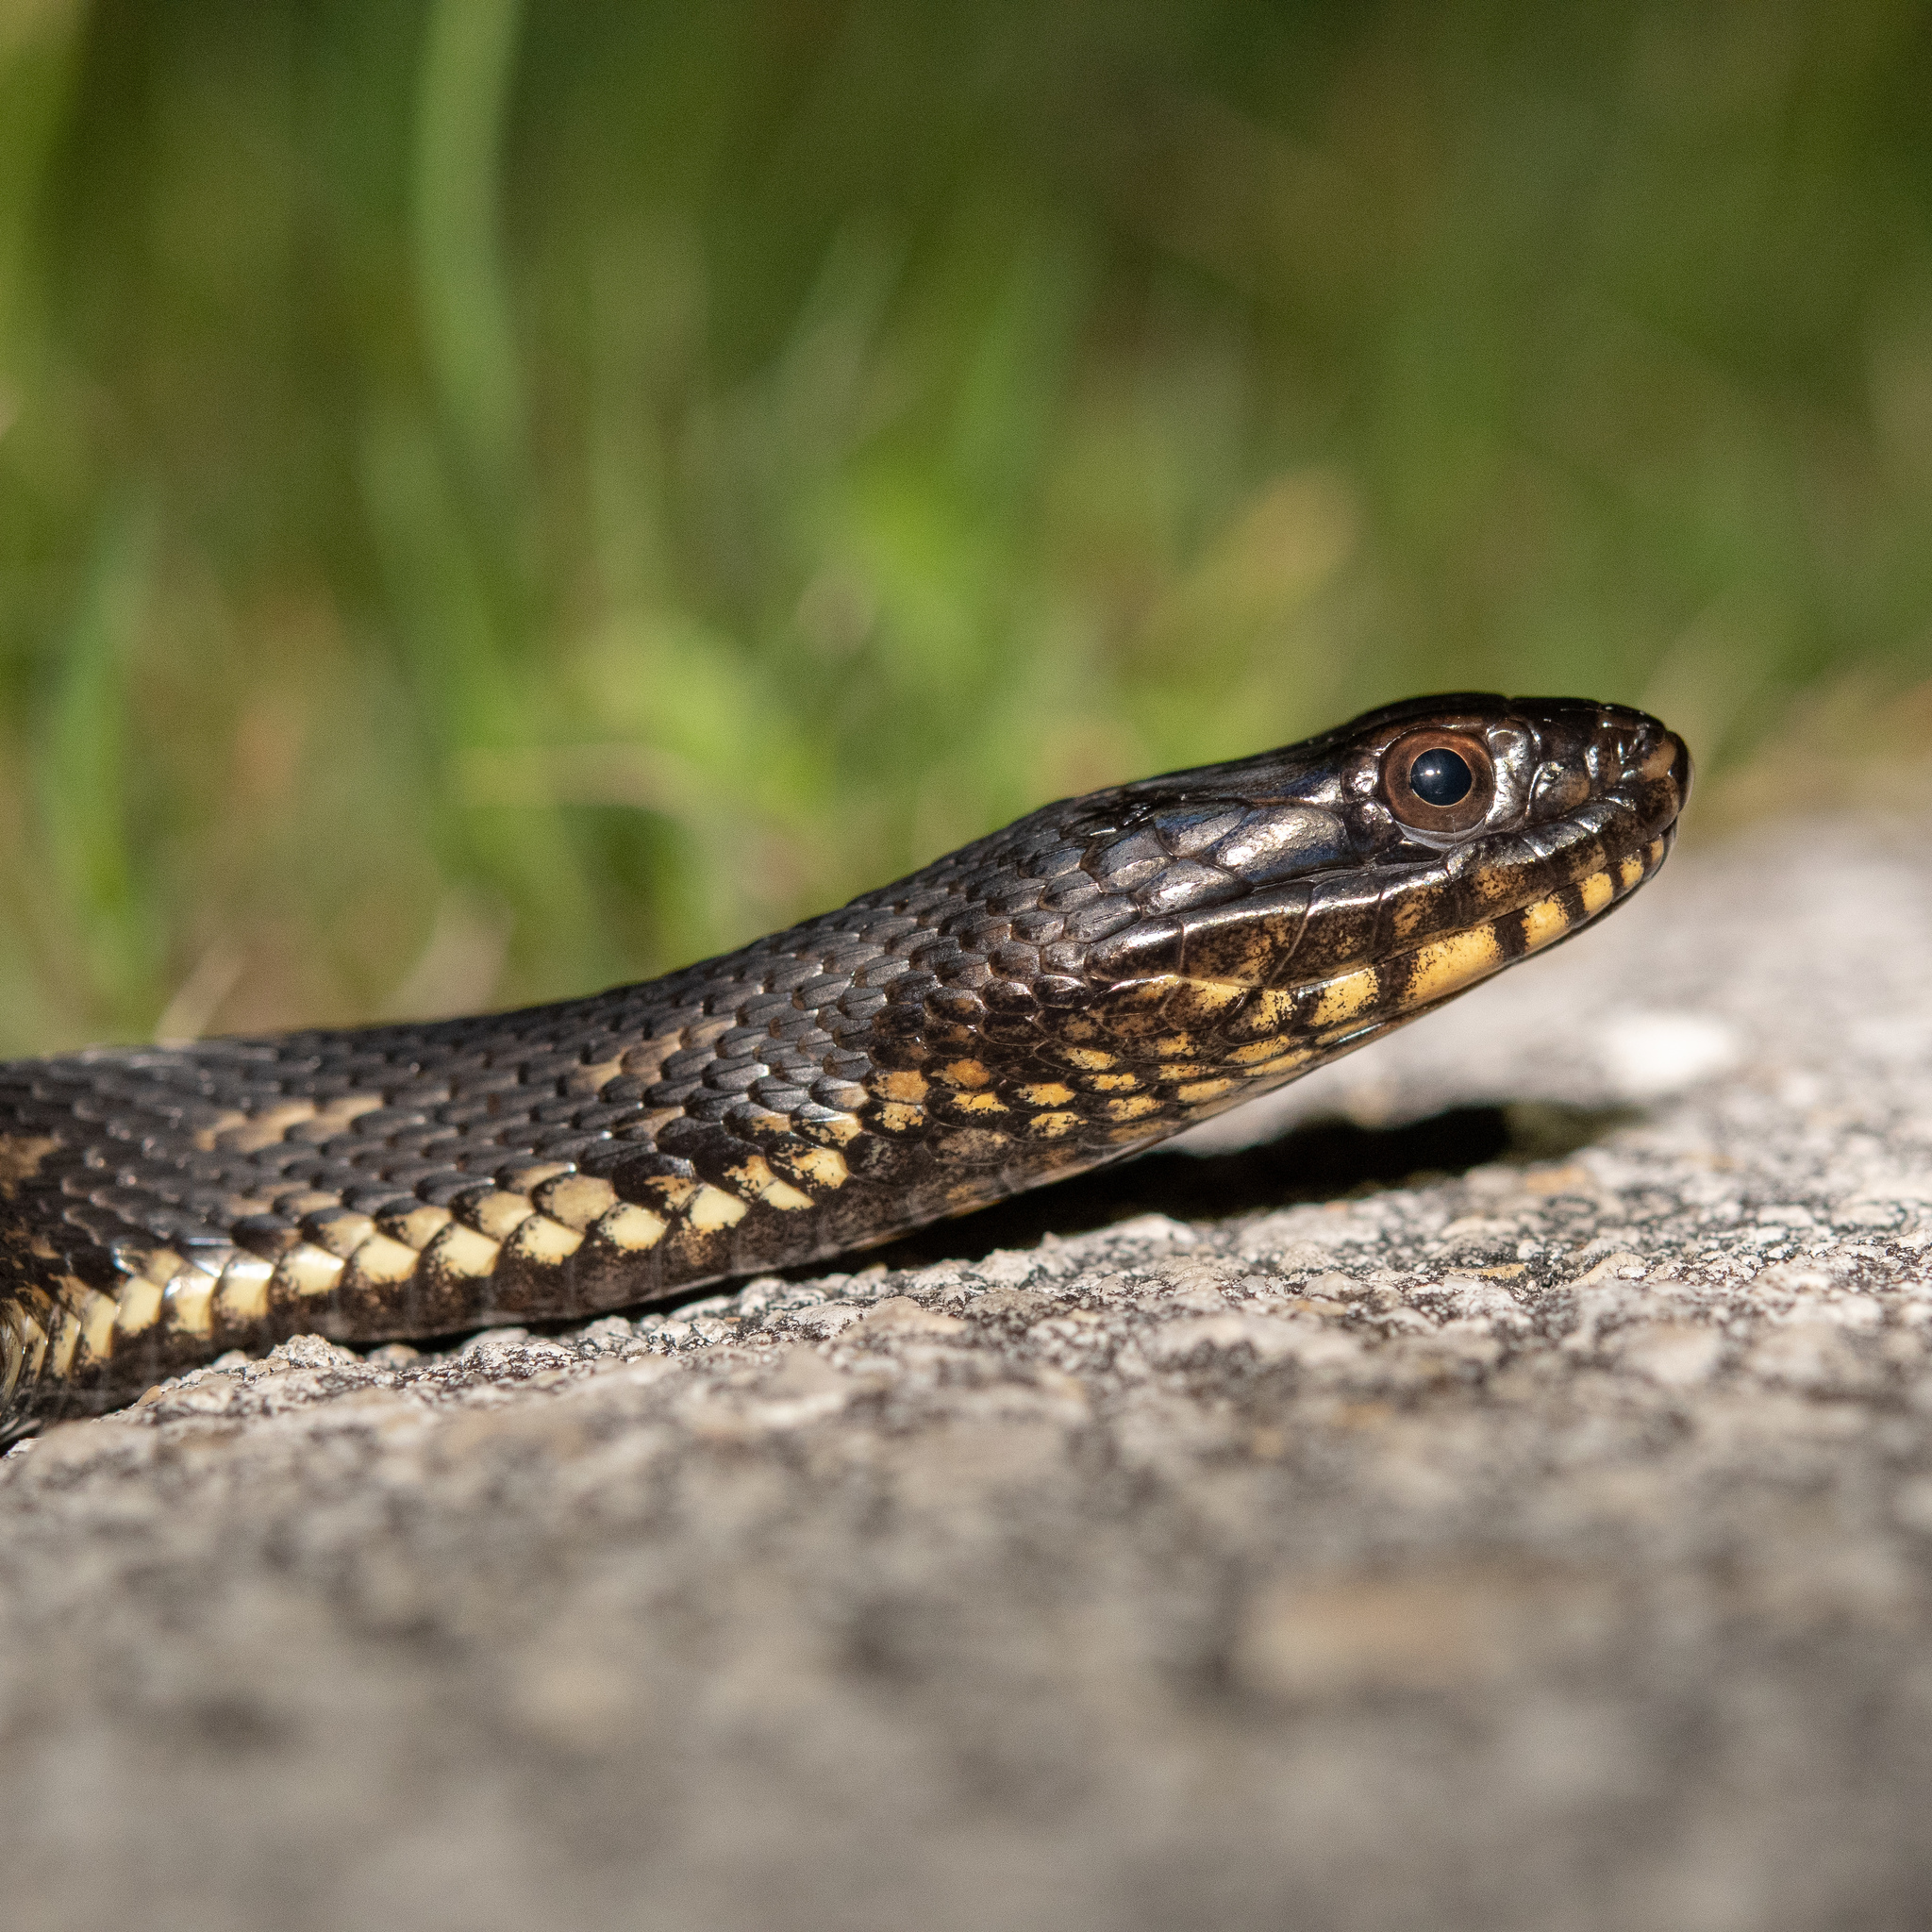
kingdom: Animalia
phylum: Chordata
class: Squamata
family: Colubridae
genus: Nerodia
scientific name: Nerodia clarkii
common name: Atlantic saltmarsh snake
